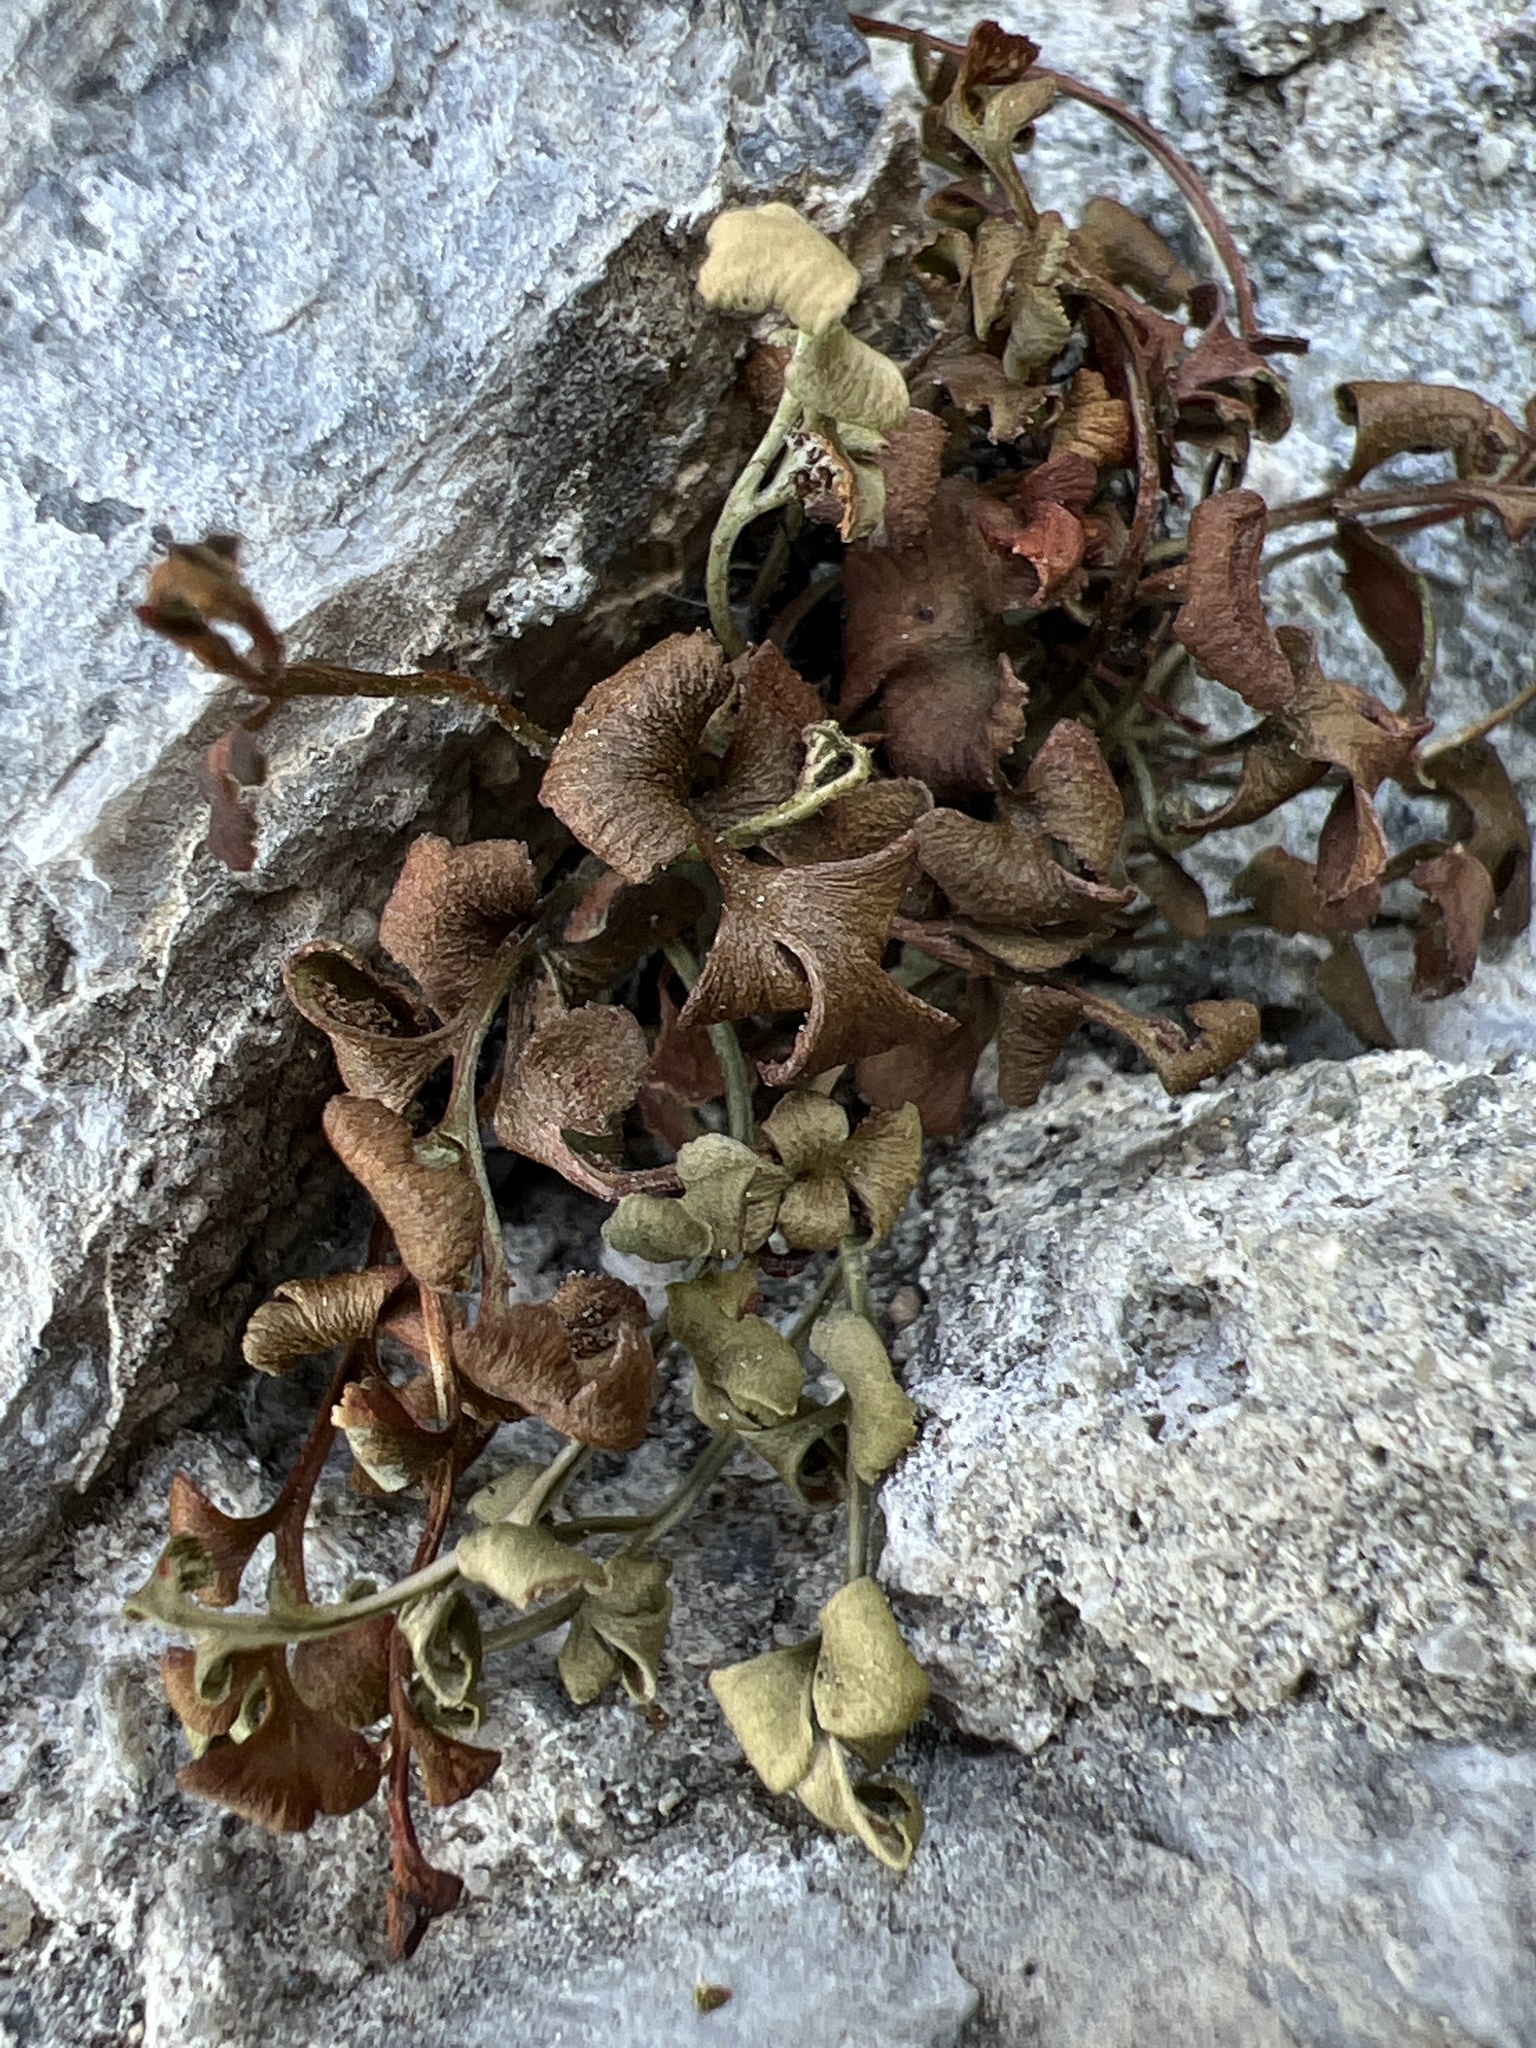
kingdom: Plantae
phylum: Tracheophyta
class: Polypodiopsida
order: Polypodiales
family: Aspleniaceae
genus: Asplenium
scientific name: Asplenium ruta-muraria
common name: Wall-rue
